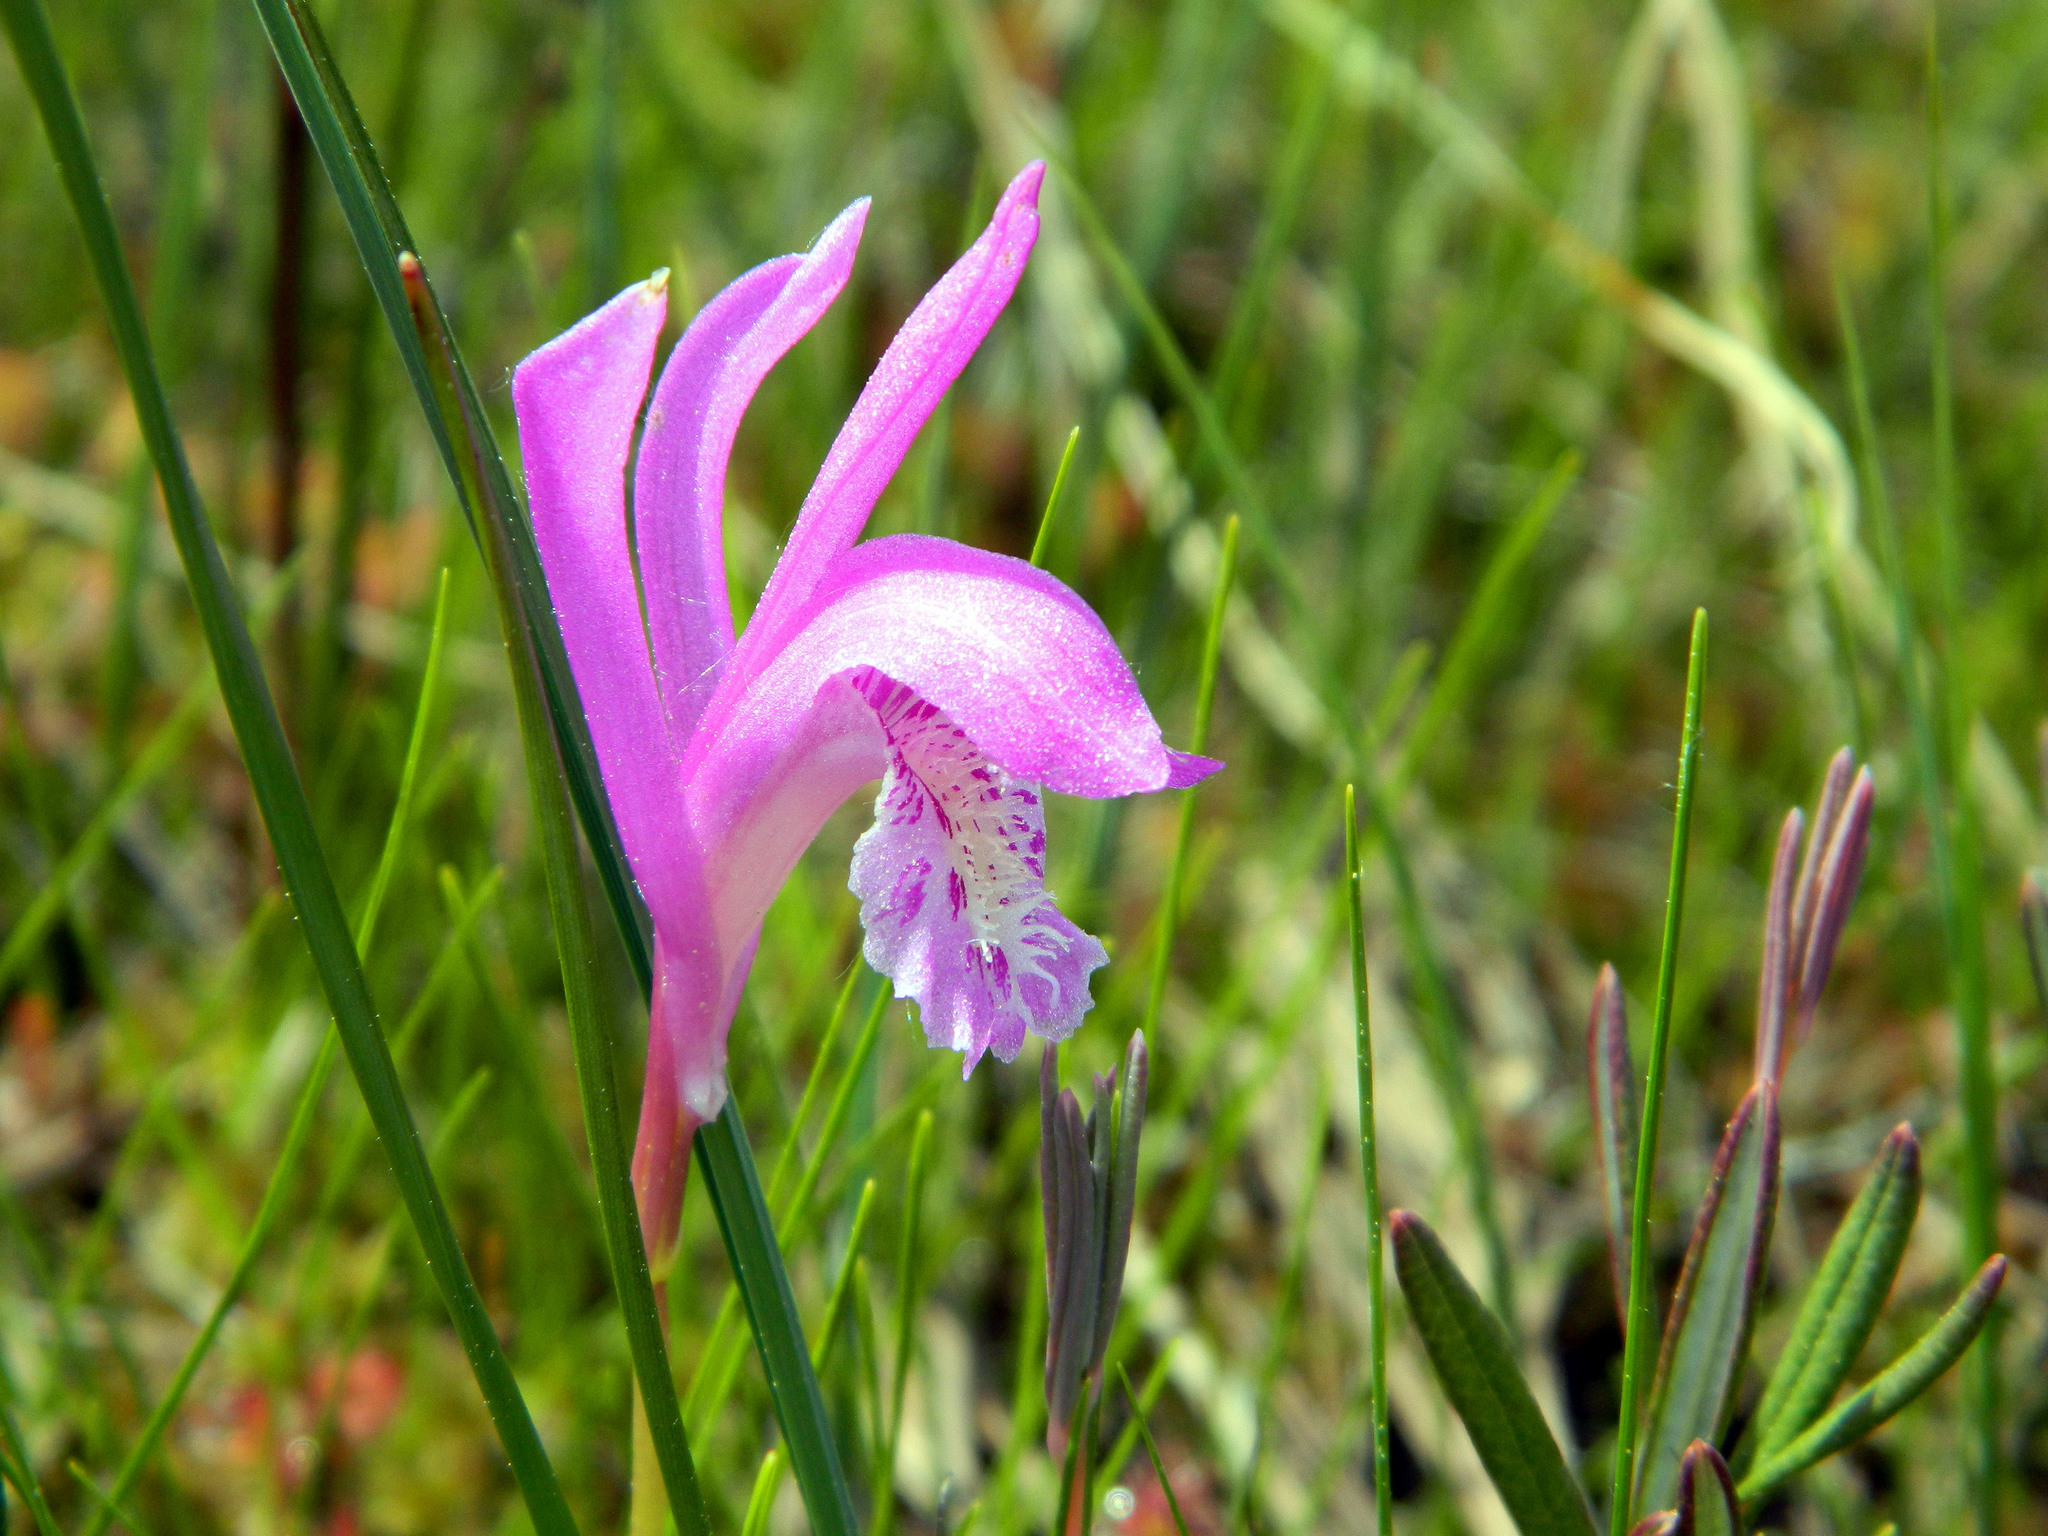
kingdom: Plantae
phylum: Tracheophyta
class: Liliopsida
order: Asparagales
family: Orchidaceae
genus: Arethusa
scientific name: Arethusa bulbosa
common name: Arethusa
